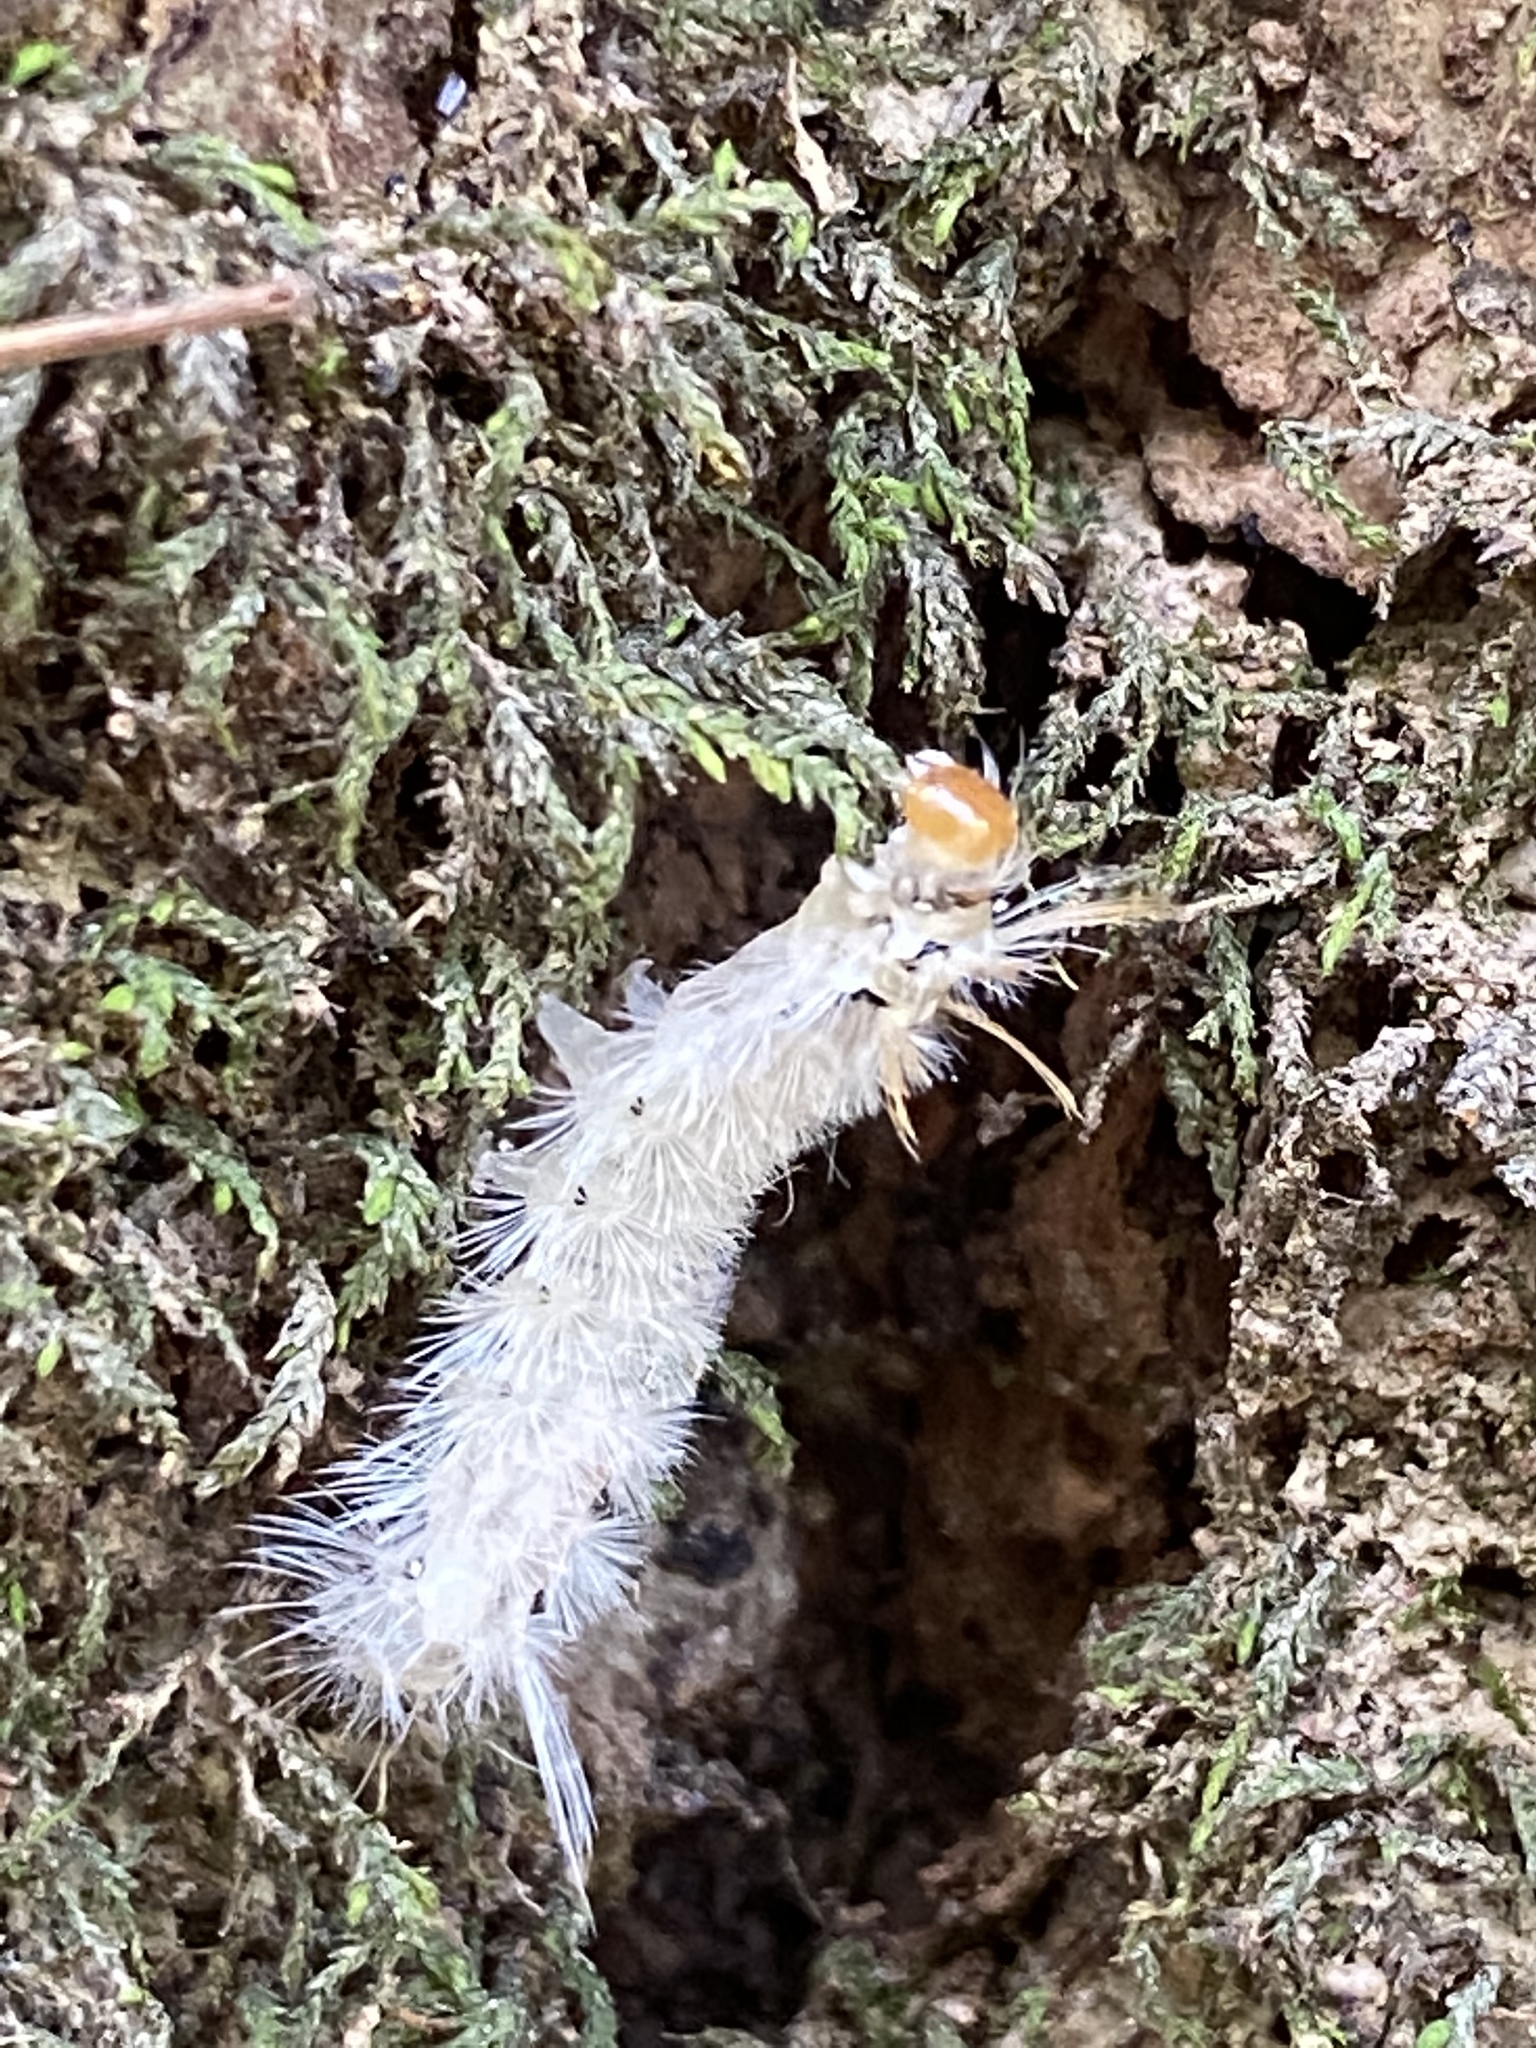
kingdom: Animalia
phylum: Arthropoda
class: Insecta
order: Lepidoptera
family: Erebidae
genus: Halysidota
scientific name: Halysidota harrisii
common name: Sycamore tussock moth
